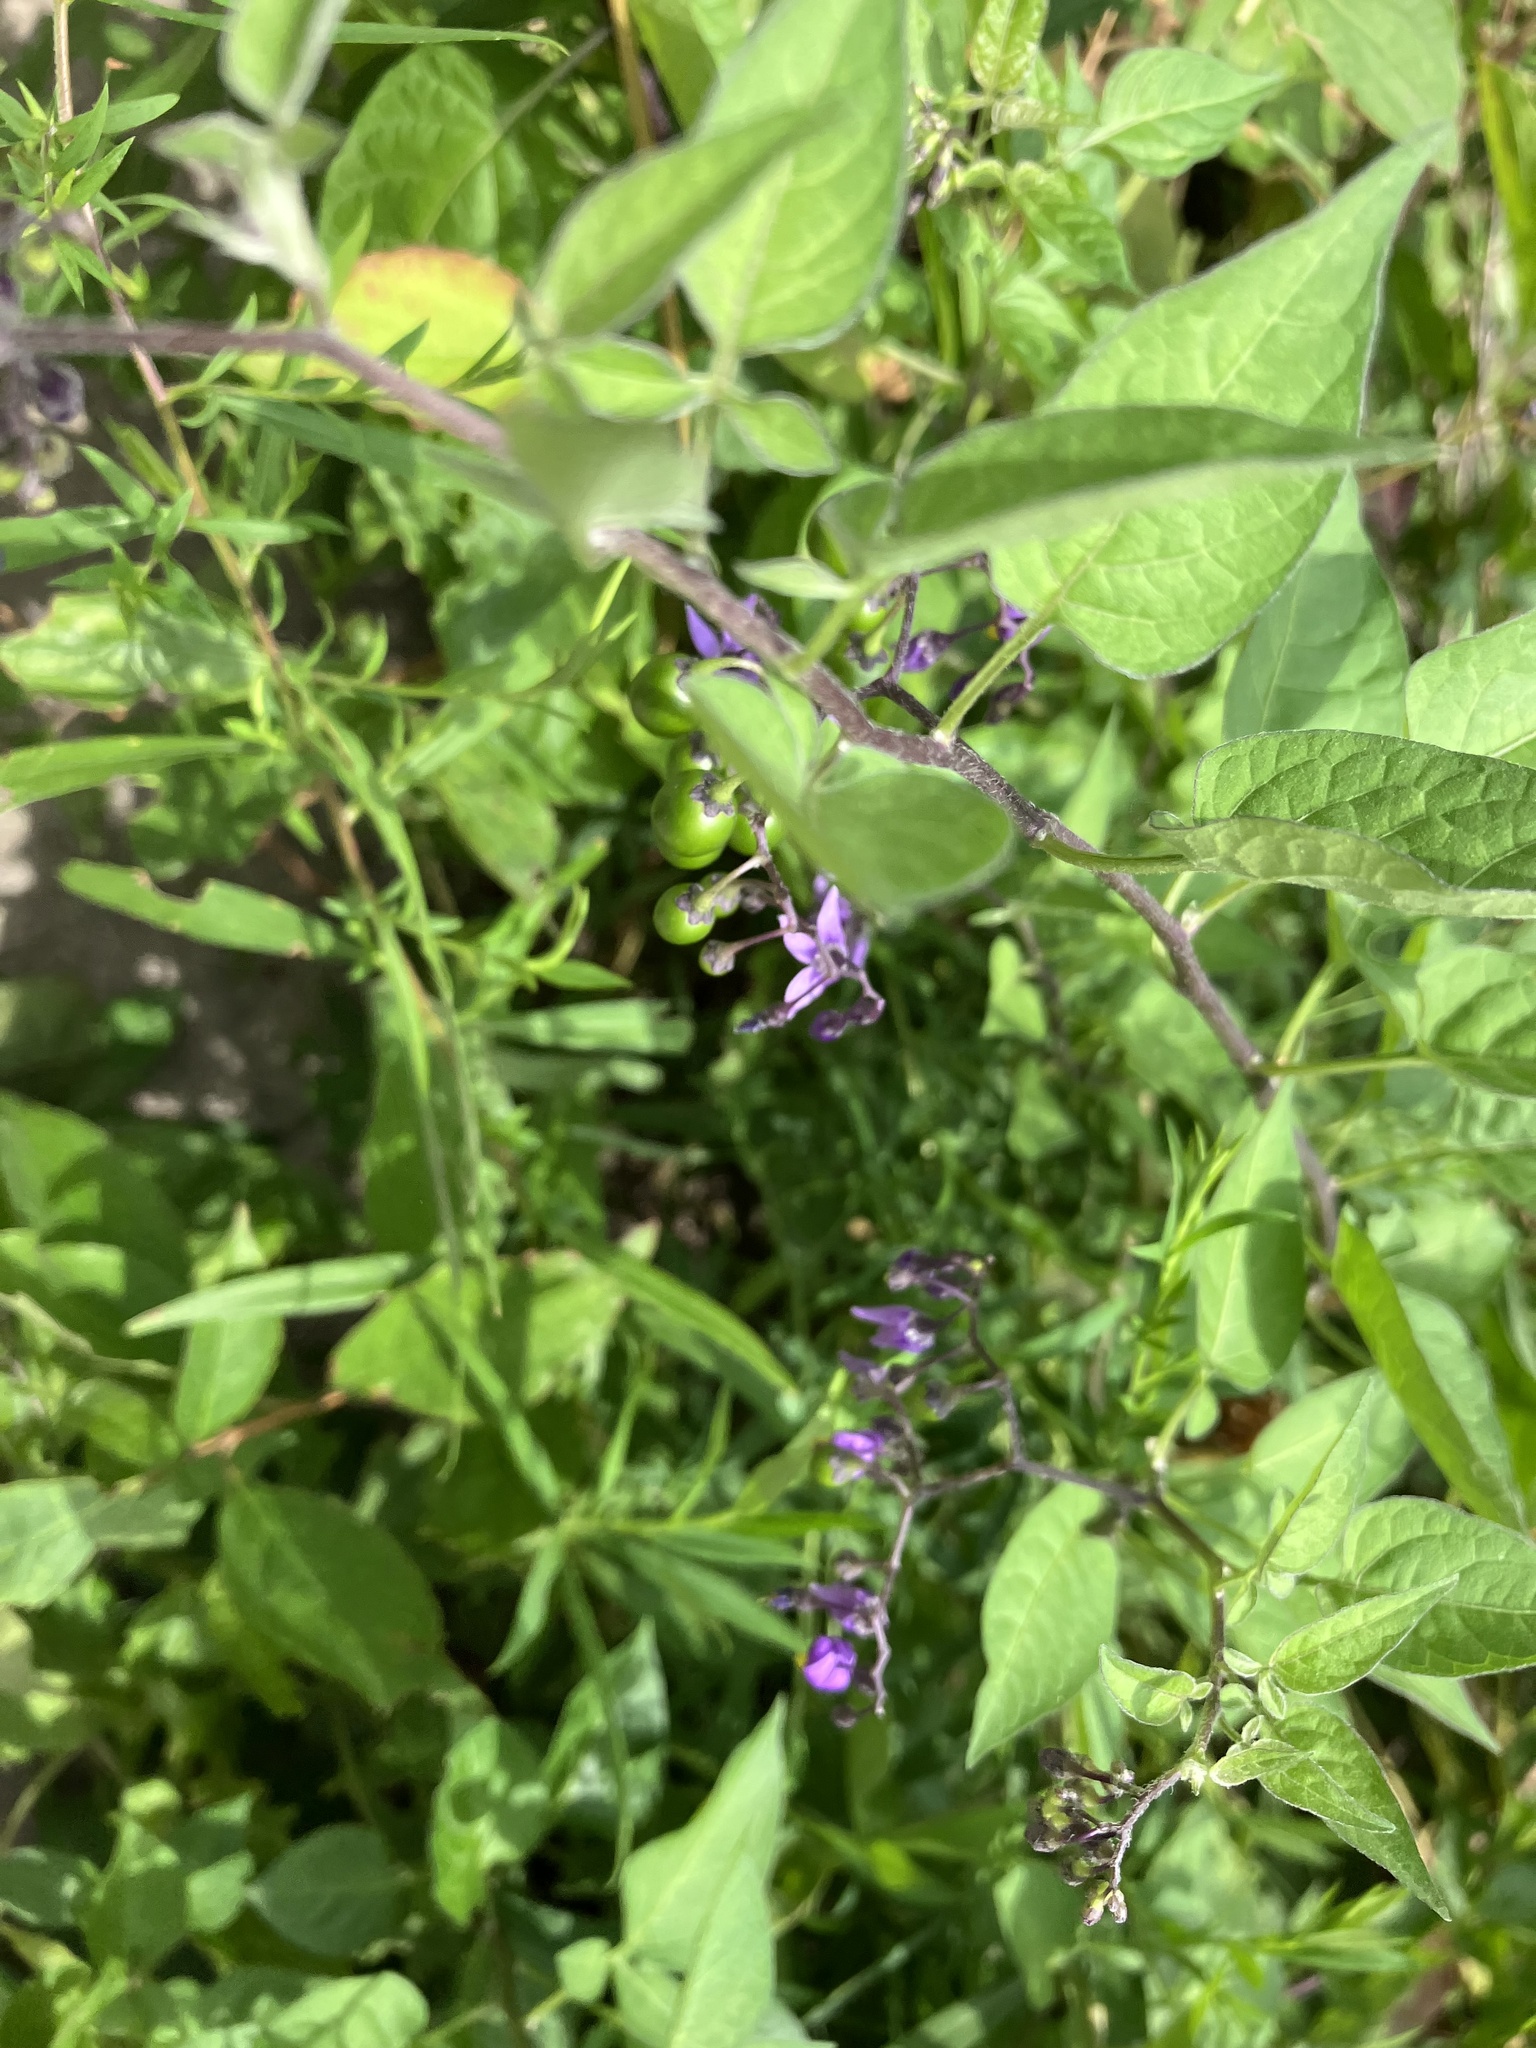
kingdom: Plantae
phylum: Tracheophyta
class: Magnoliopsida
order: Solanales
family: Solanaceae
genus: Solanum
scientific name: Solanum dulcamara
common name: Climbing nightshade
